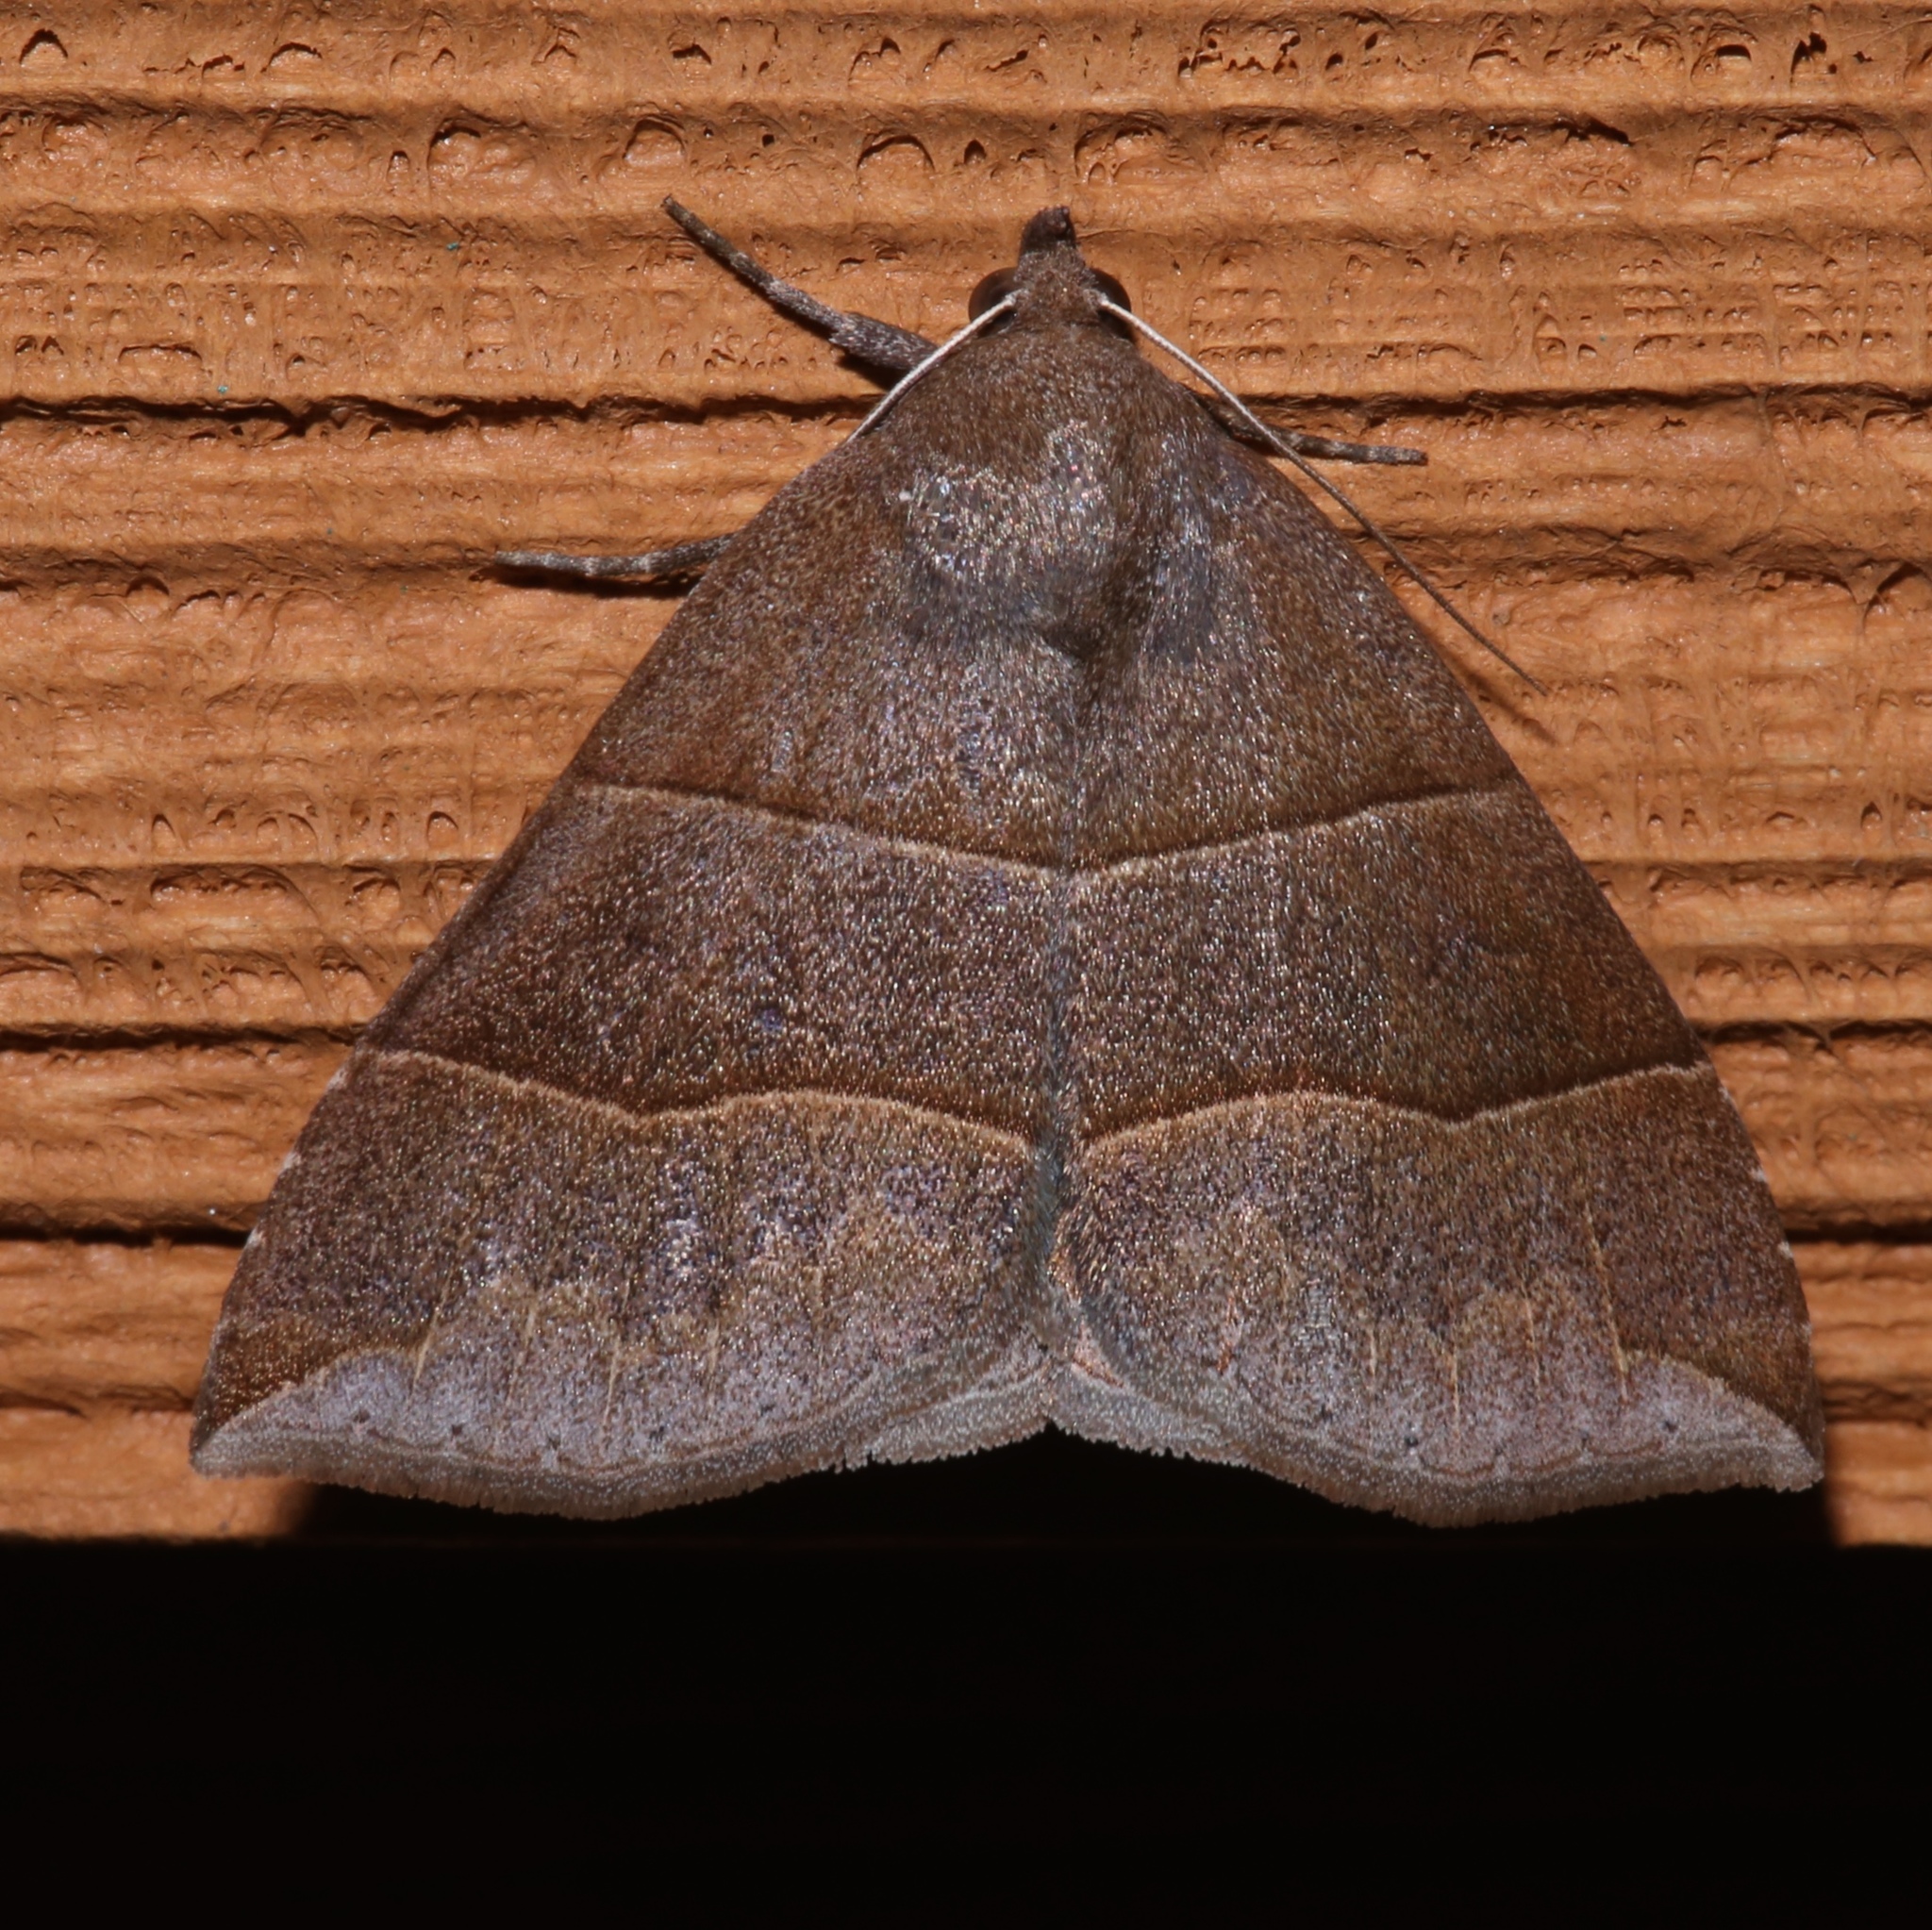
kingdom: Animalia
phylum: Arthropoda
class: Insecta
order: Lepidoptera
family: Erebidae
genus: Parallelia
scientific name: Parallelia bistriaris
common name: Maple looper moth
